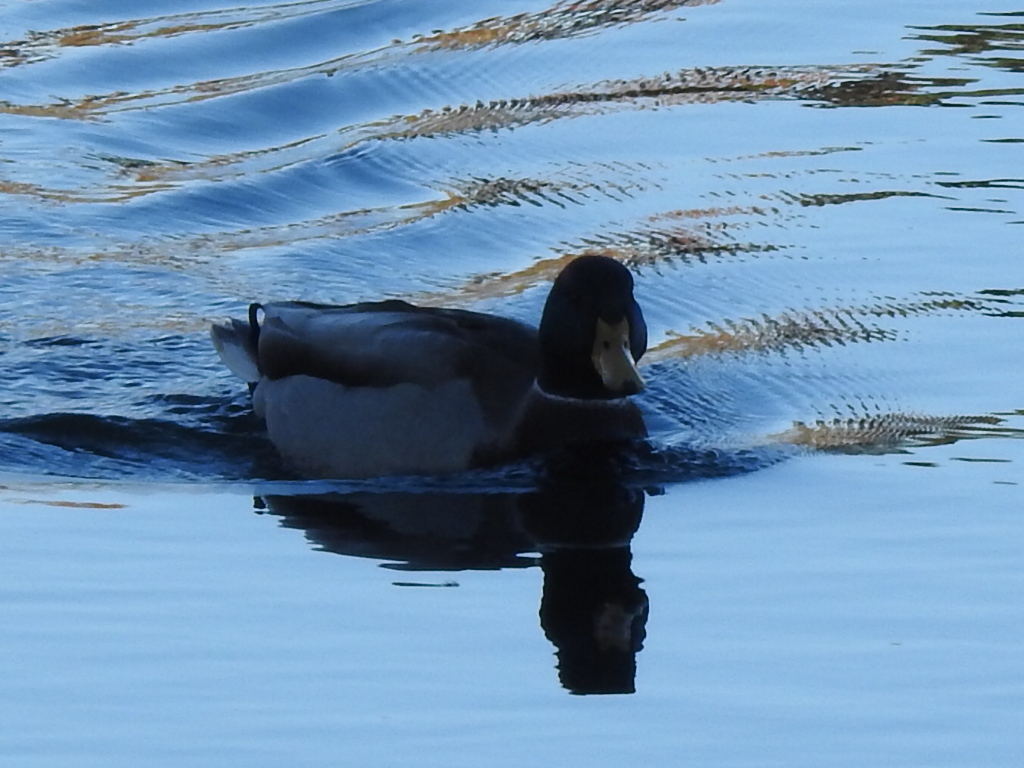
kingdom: Animalia
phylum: Chordata
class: Aves
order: Anseriformes
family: Anatidae
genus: Anas
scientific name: Anas platyrhynchos
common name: Mallard
